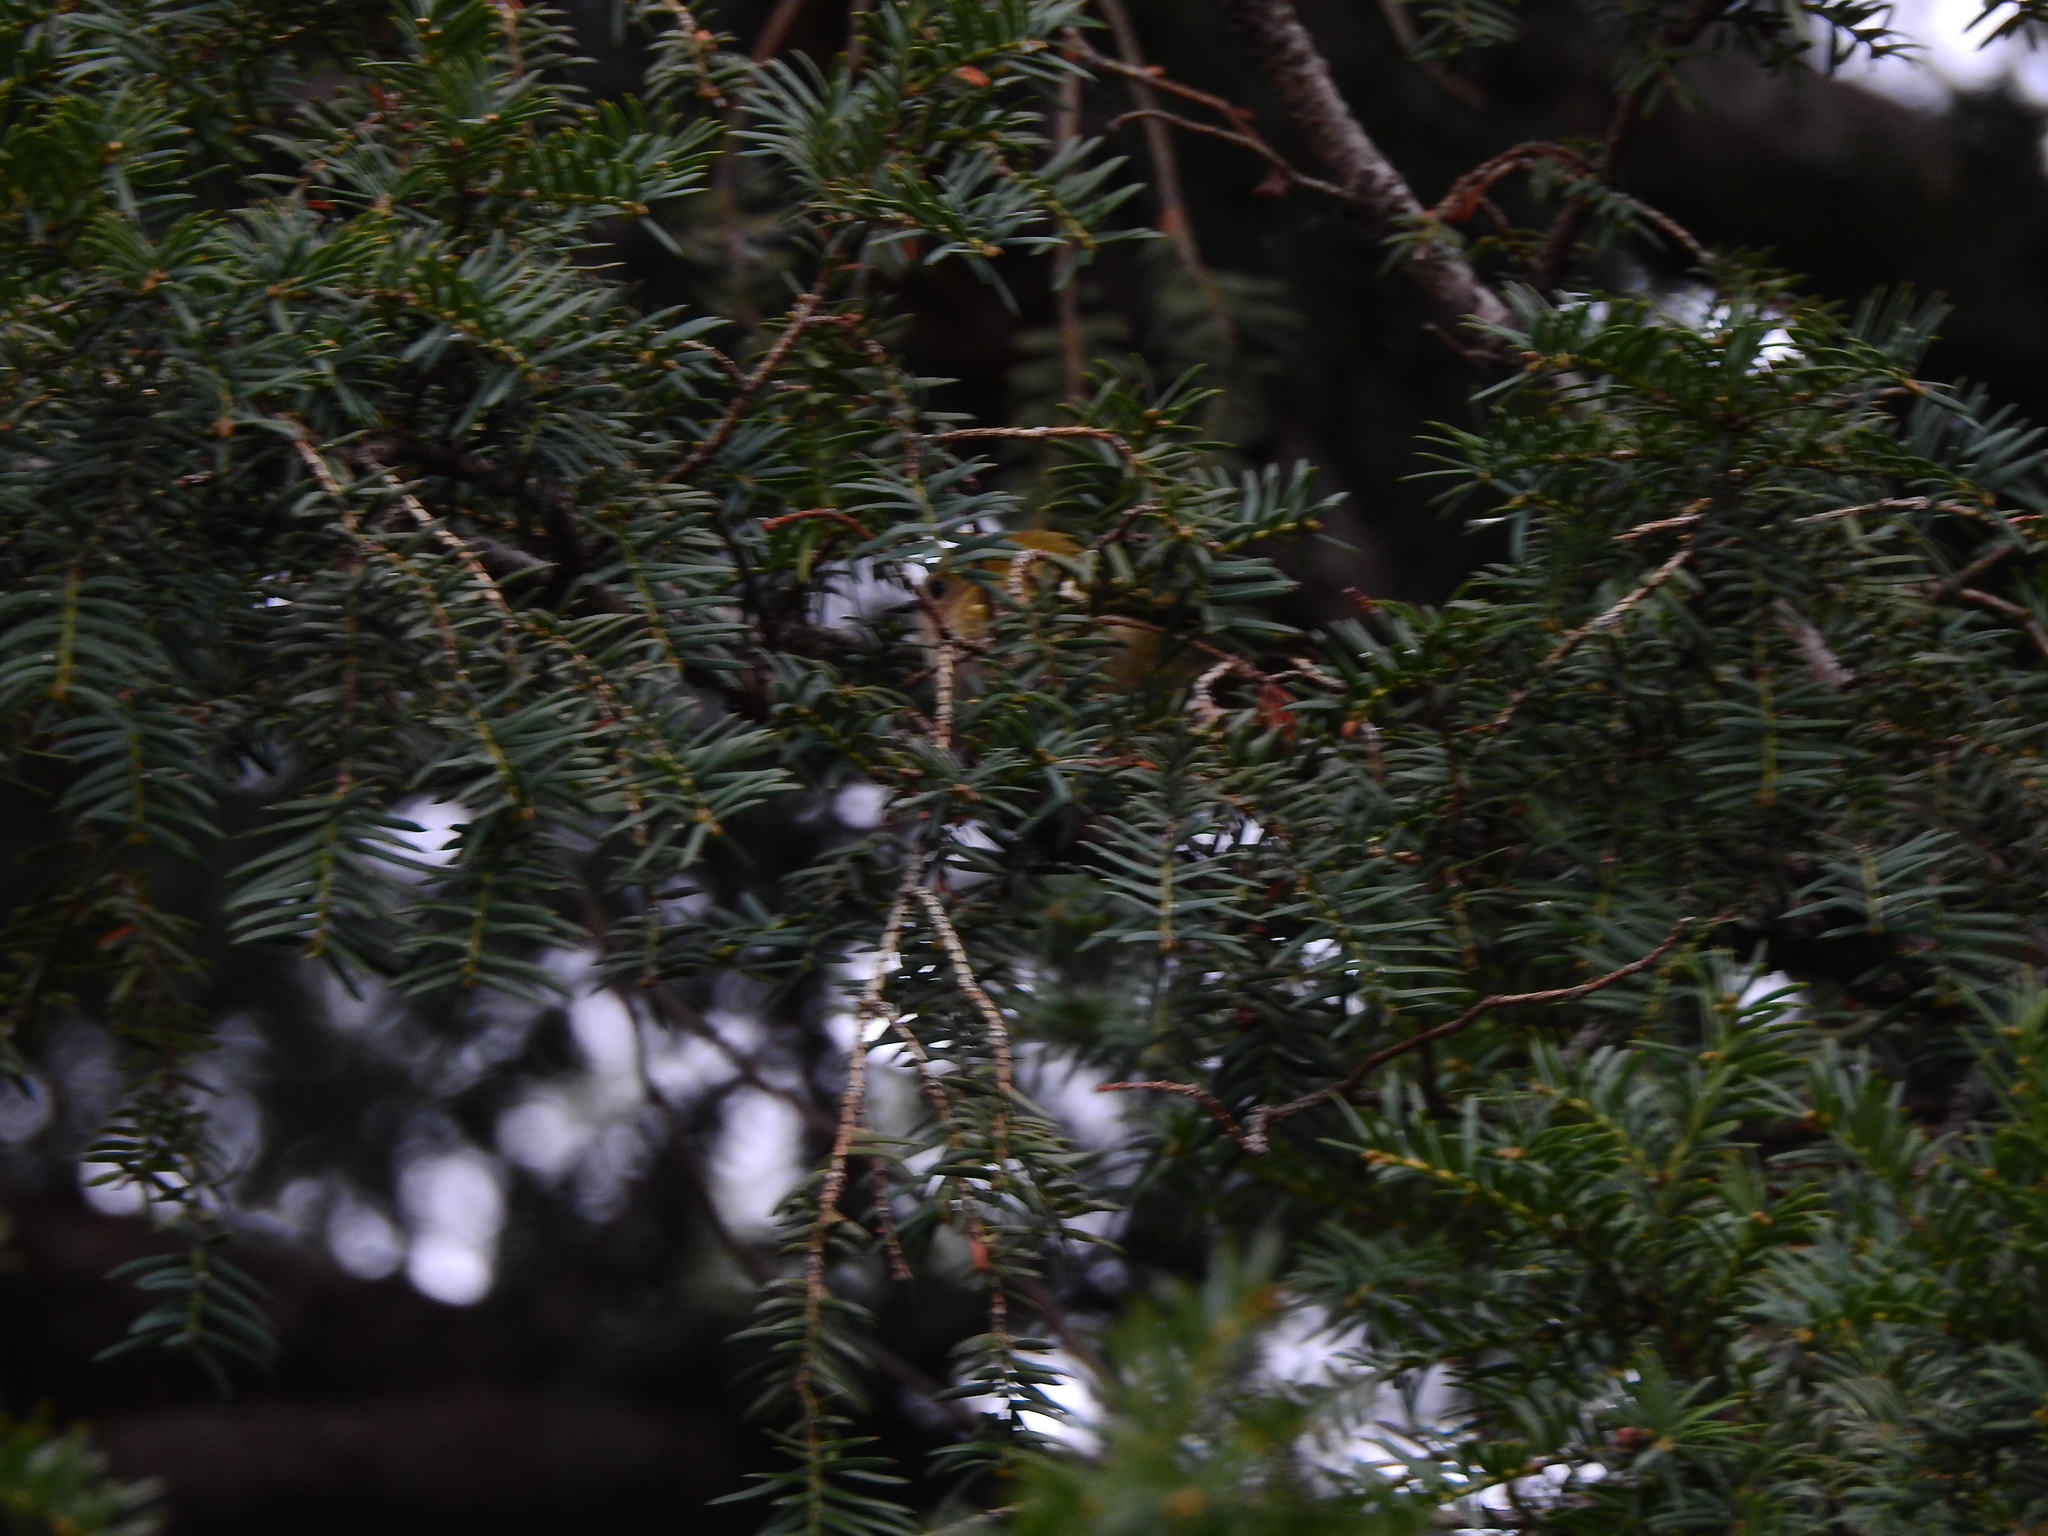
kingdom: Animalia
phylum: Chordata
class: Aves
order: Passeriformes
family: Regulidae
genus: Regulus
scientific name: Regulus regulus
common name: Goldcrest
